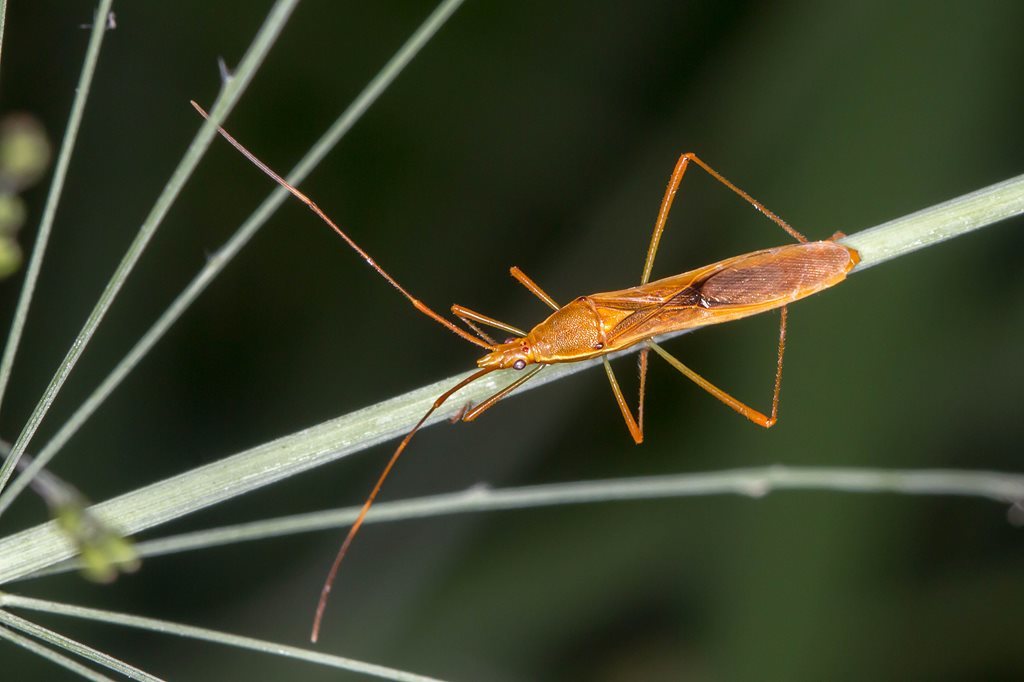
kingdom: Animalia
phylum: Arthropoda
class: Insecta
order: Hemiptera
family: Alydidae
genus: Leptocorisa
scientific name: Leptocorisa acuta
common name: Gandhi bug
